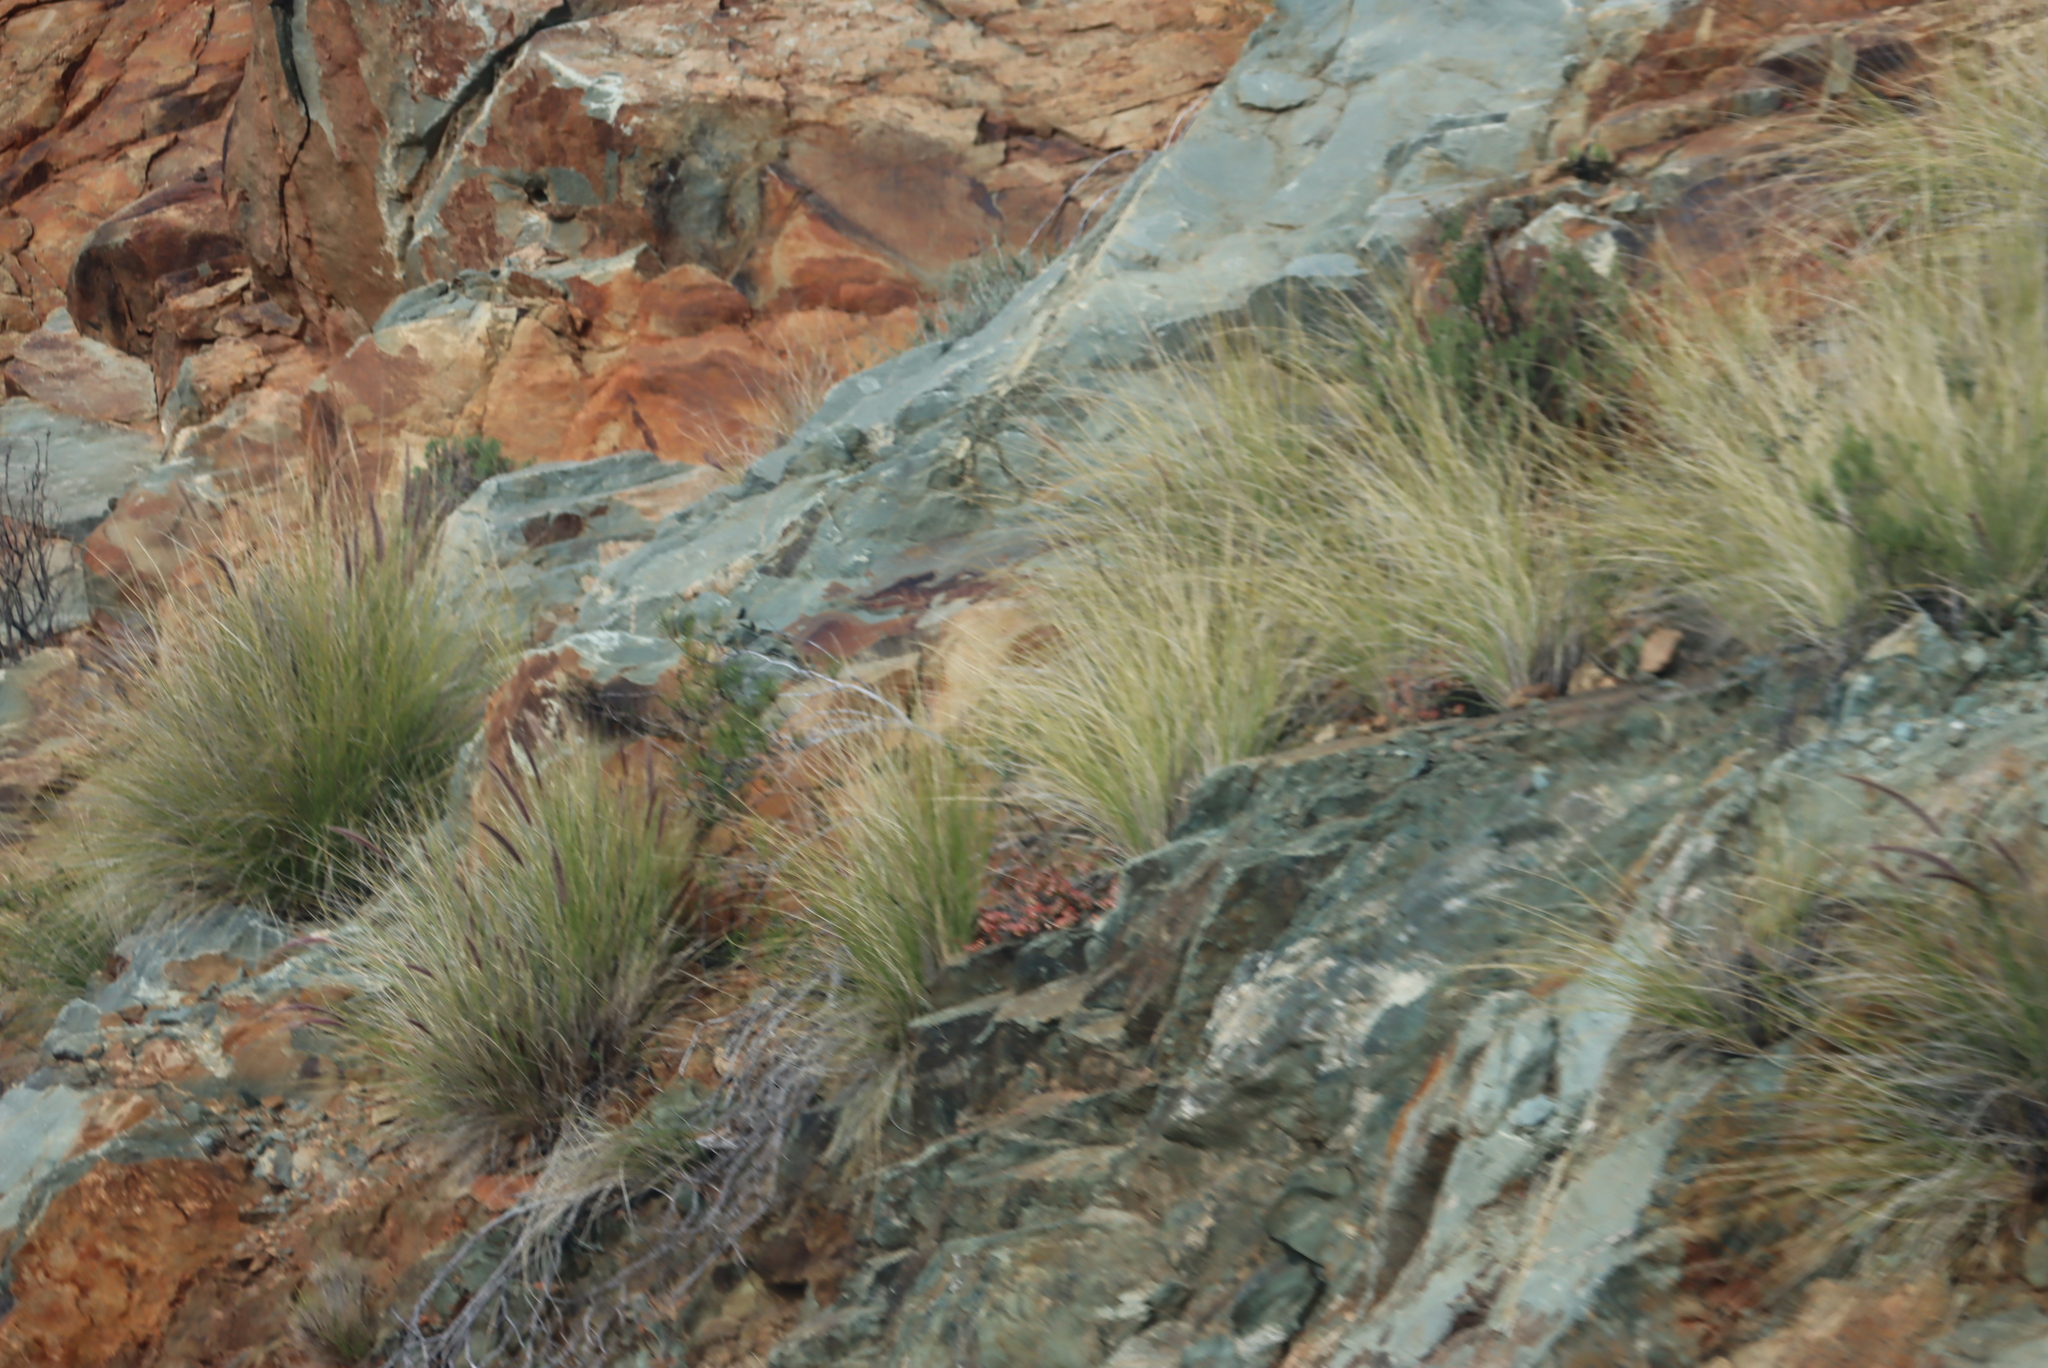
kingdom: Plantae
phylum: Tracheophyta
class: Liliopsida
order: Poales
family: Poaceae
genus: Cenchrus
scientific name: Cenchrus setaceus
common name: Crimson fountaingrass
